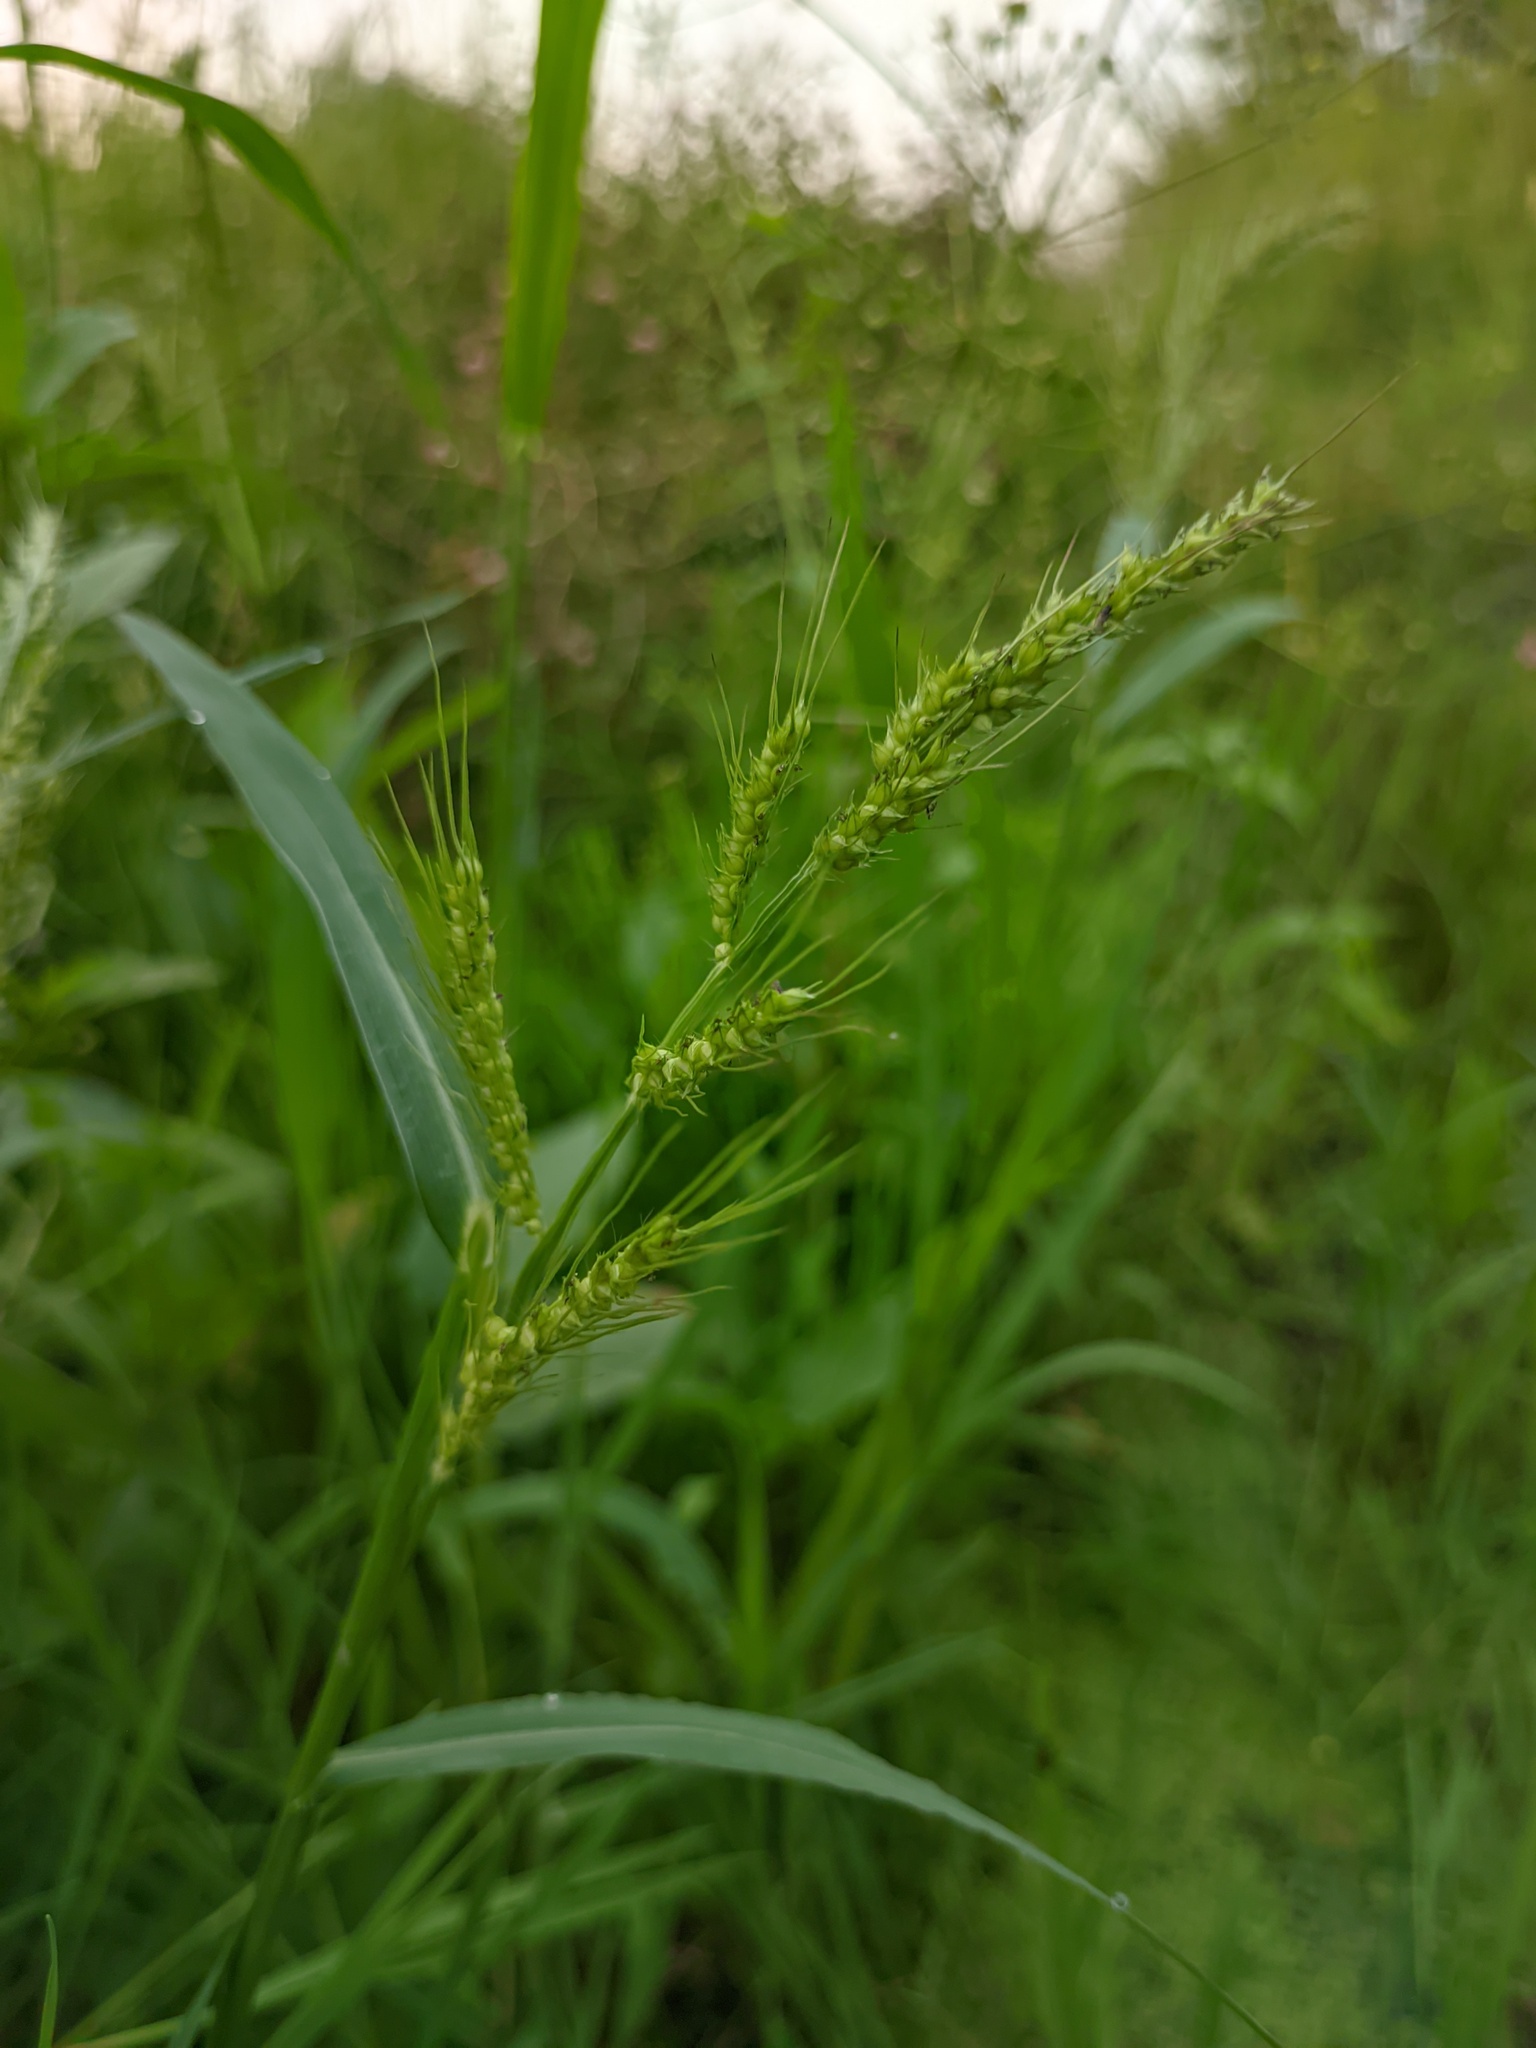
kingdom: Plantae
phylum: Tracheophyta
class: Liliopsida
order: Poales
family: Poaceae
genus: Echinochloa
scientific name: Echinochloa crus-galli
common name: Cockspur
